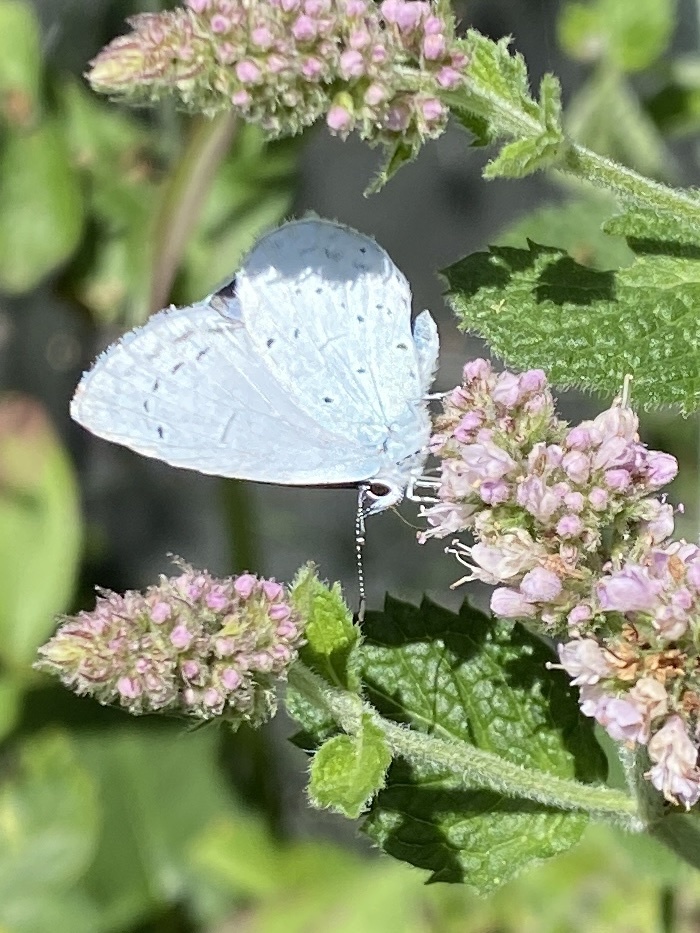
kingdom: Animalia
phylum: Arthropoda
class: Insecta
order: Lepidoptera
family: Lycaenidae
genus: Celastrina
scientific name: Celastrina argiolus
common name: Holly blue
